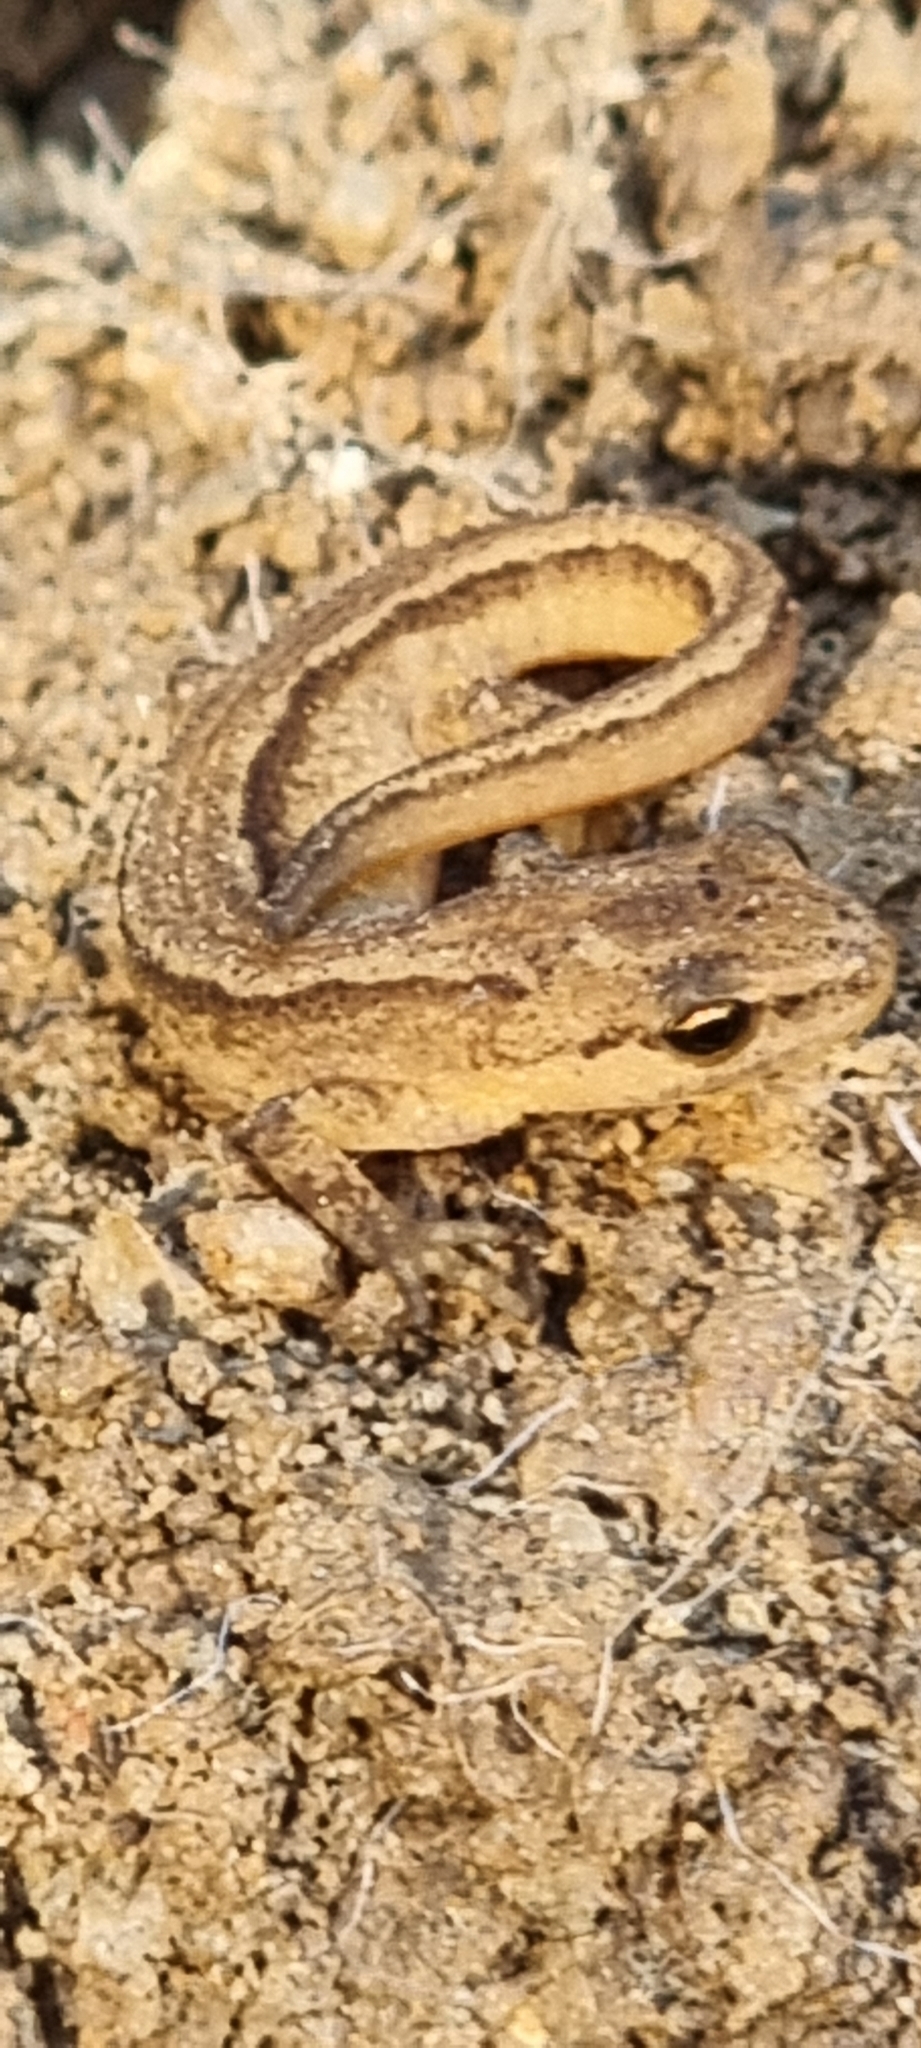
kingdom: Animalia
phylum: Chordata
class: Amphibia
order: Caudata
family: Salamandridae
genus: Lissotriton
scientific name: Lissotriton vulgaris
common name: Smooth newt
